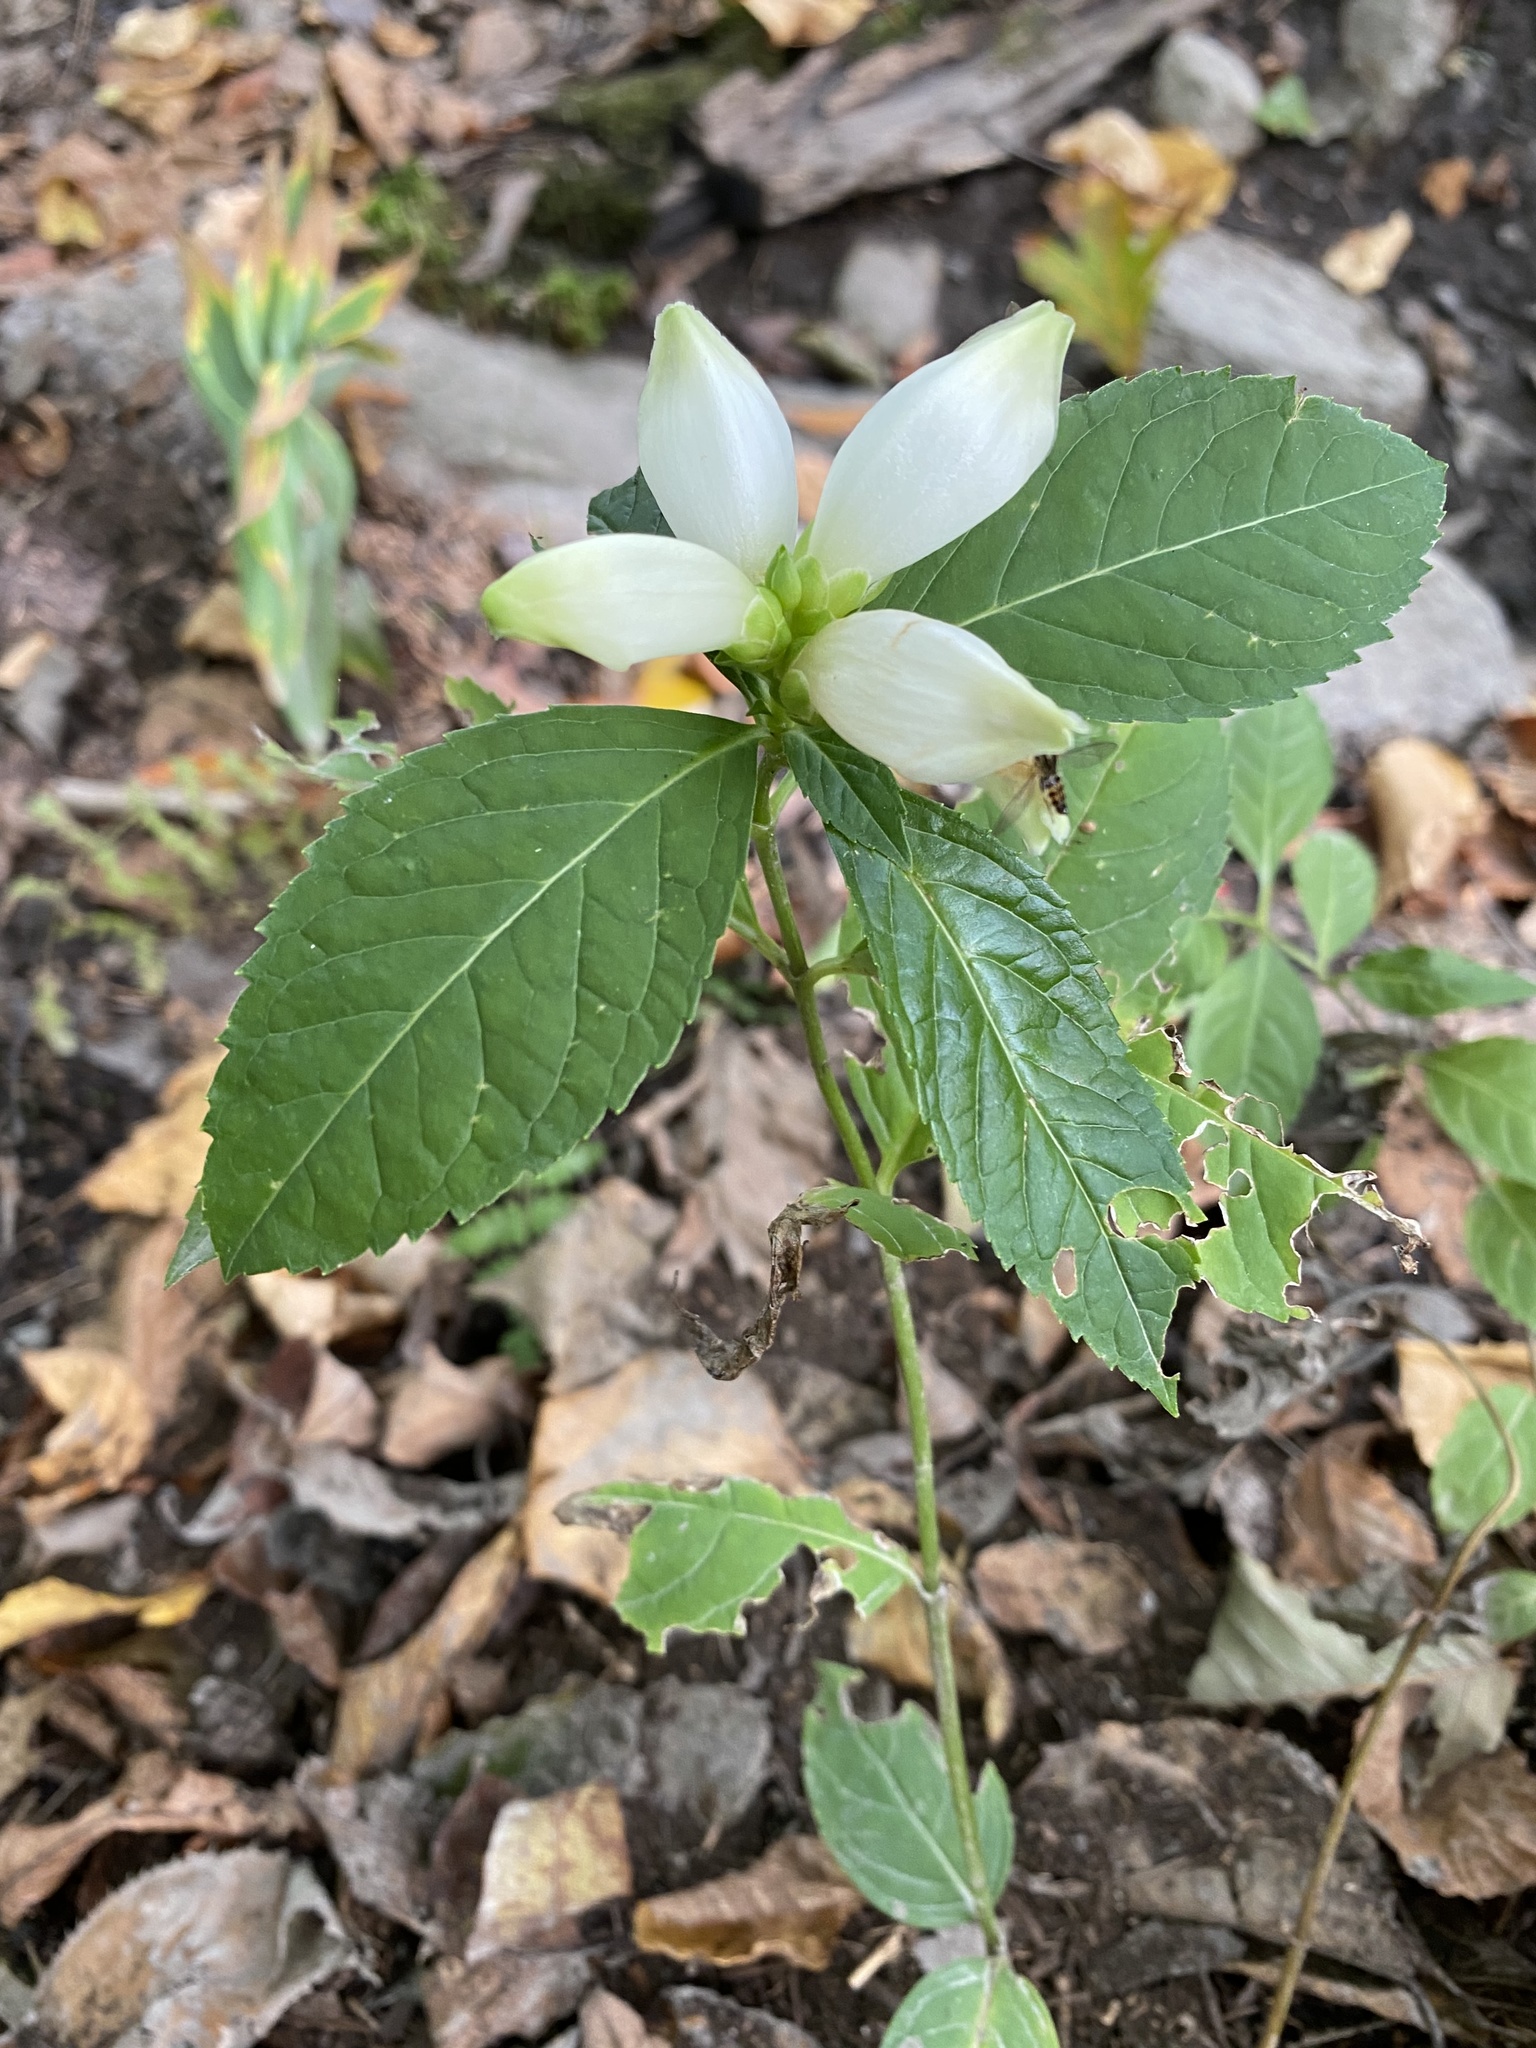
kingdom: Plantae
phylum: Tracheophyta
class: Magnoliopsida
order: Lamiales
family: Plantaginaceae
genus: Chelone
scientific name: Chelone glabra
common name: Snakehead
